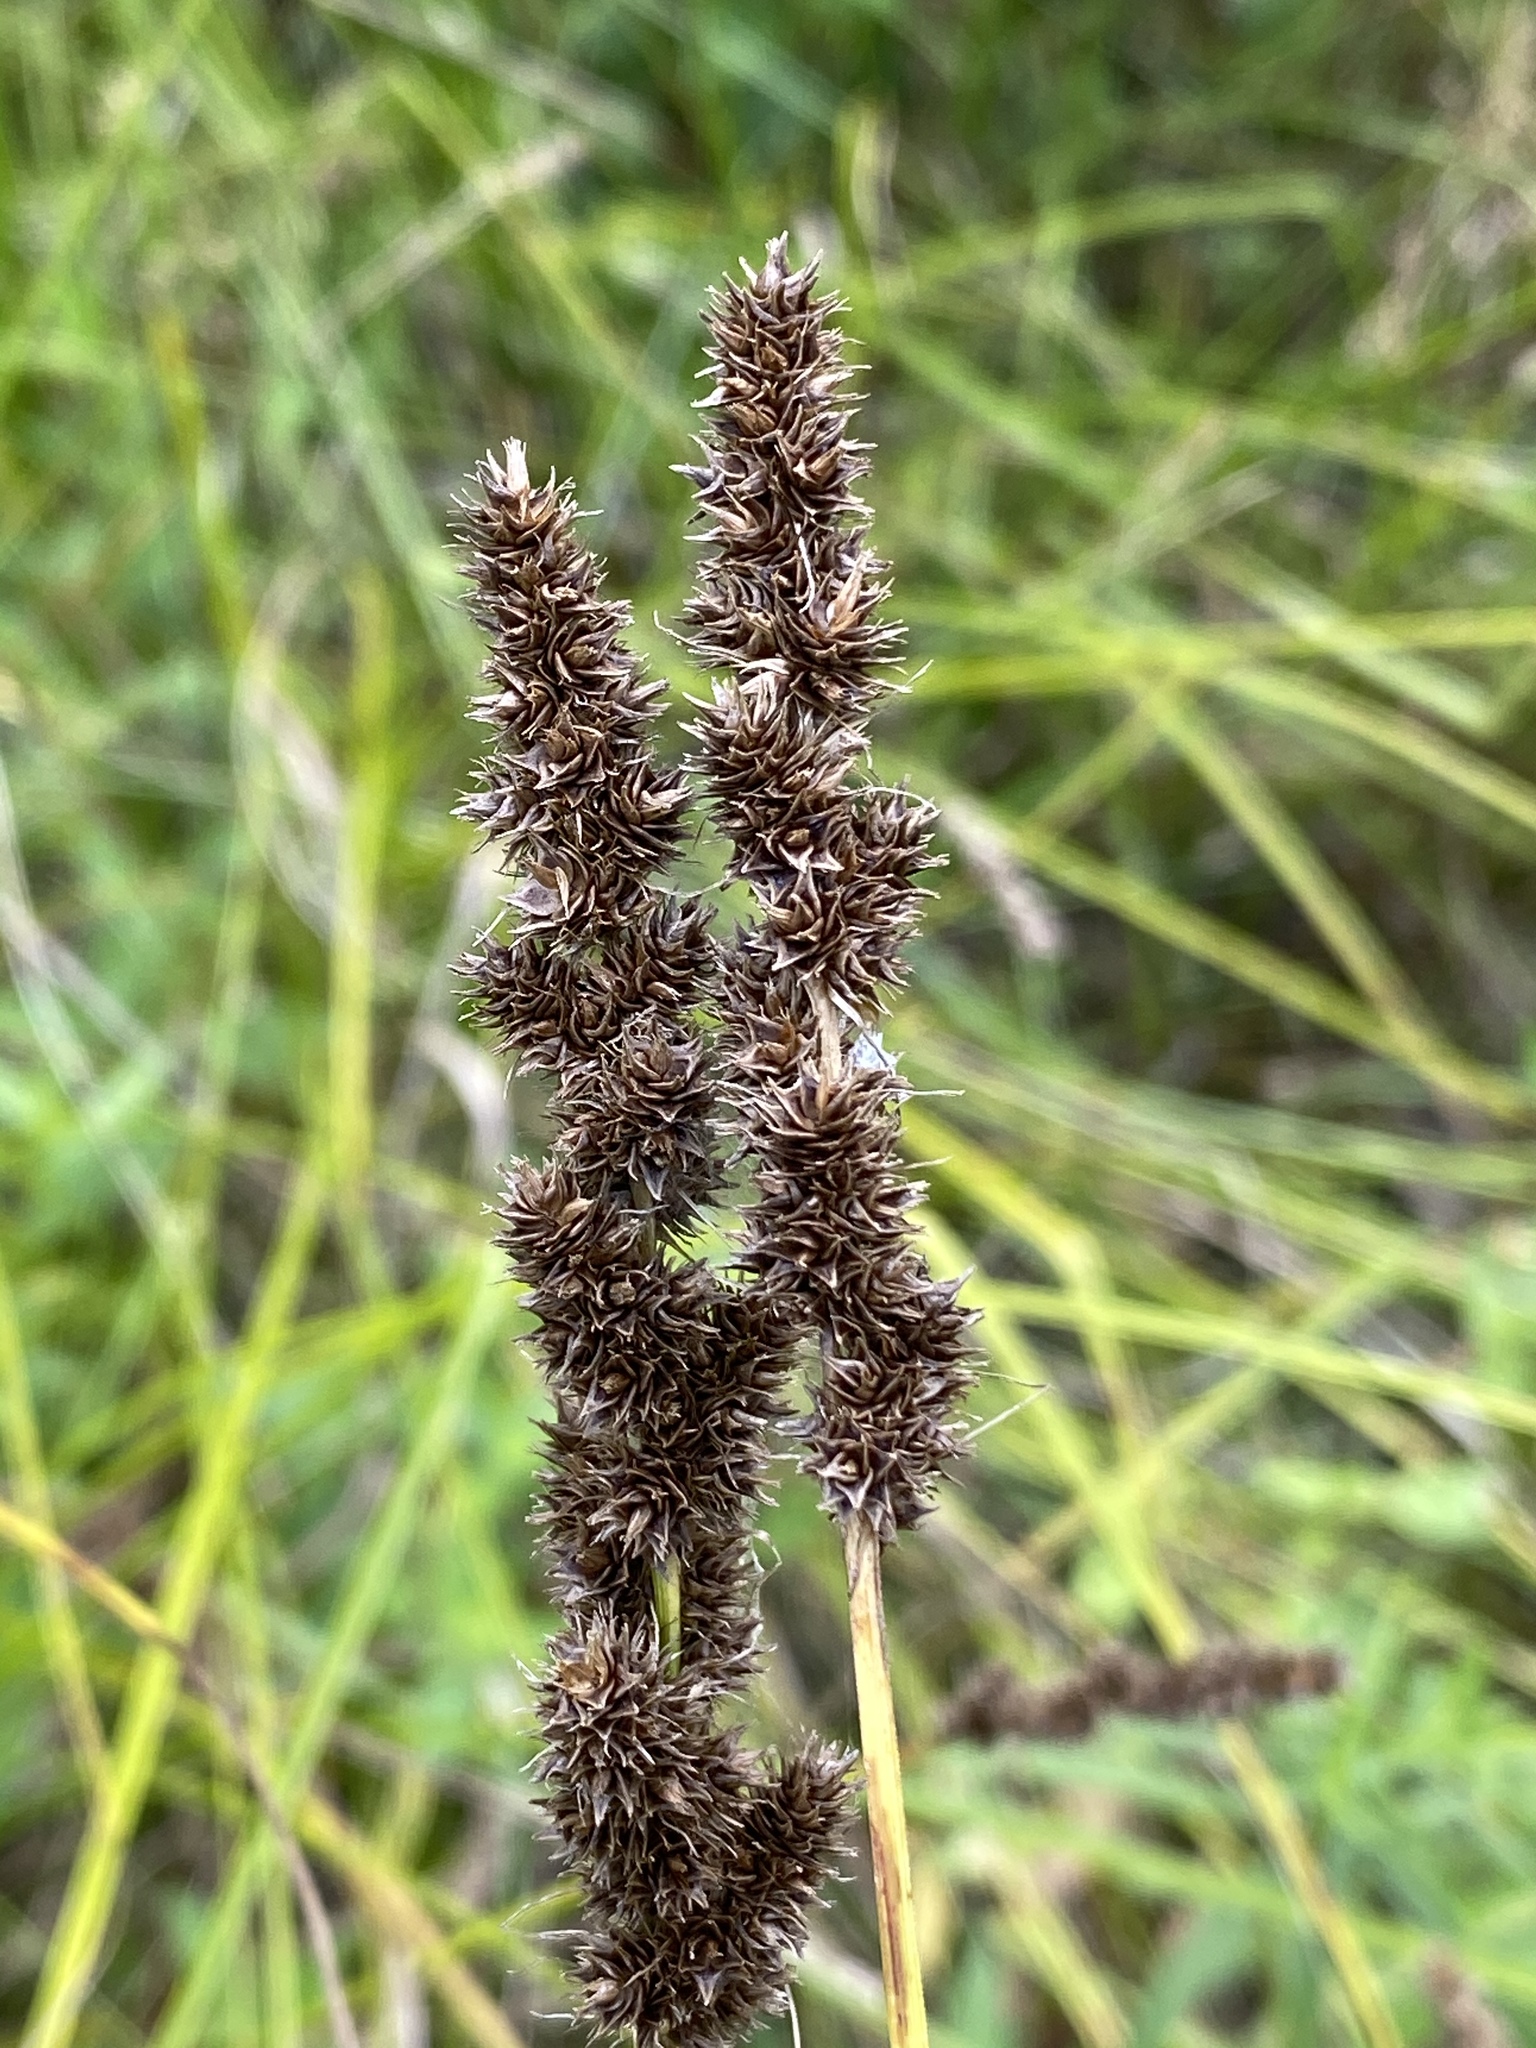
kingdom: Plantae
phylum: Tracheophyta
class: Liliopsida
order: Poales
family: Cyperaceae
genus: Carex
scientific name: Carex vulpinoidea
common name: American fox-sedge
